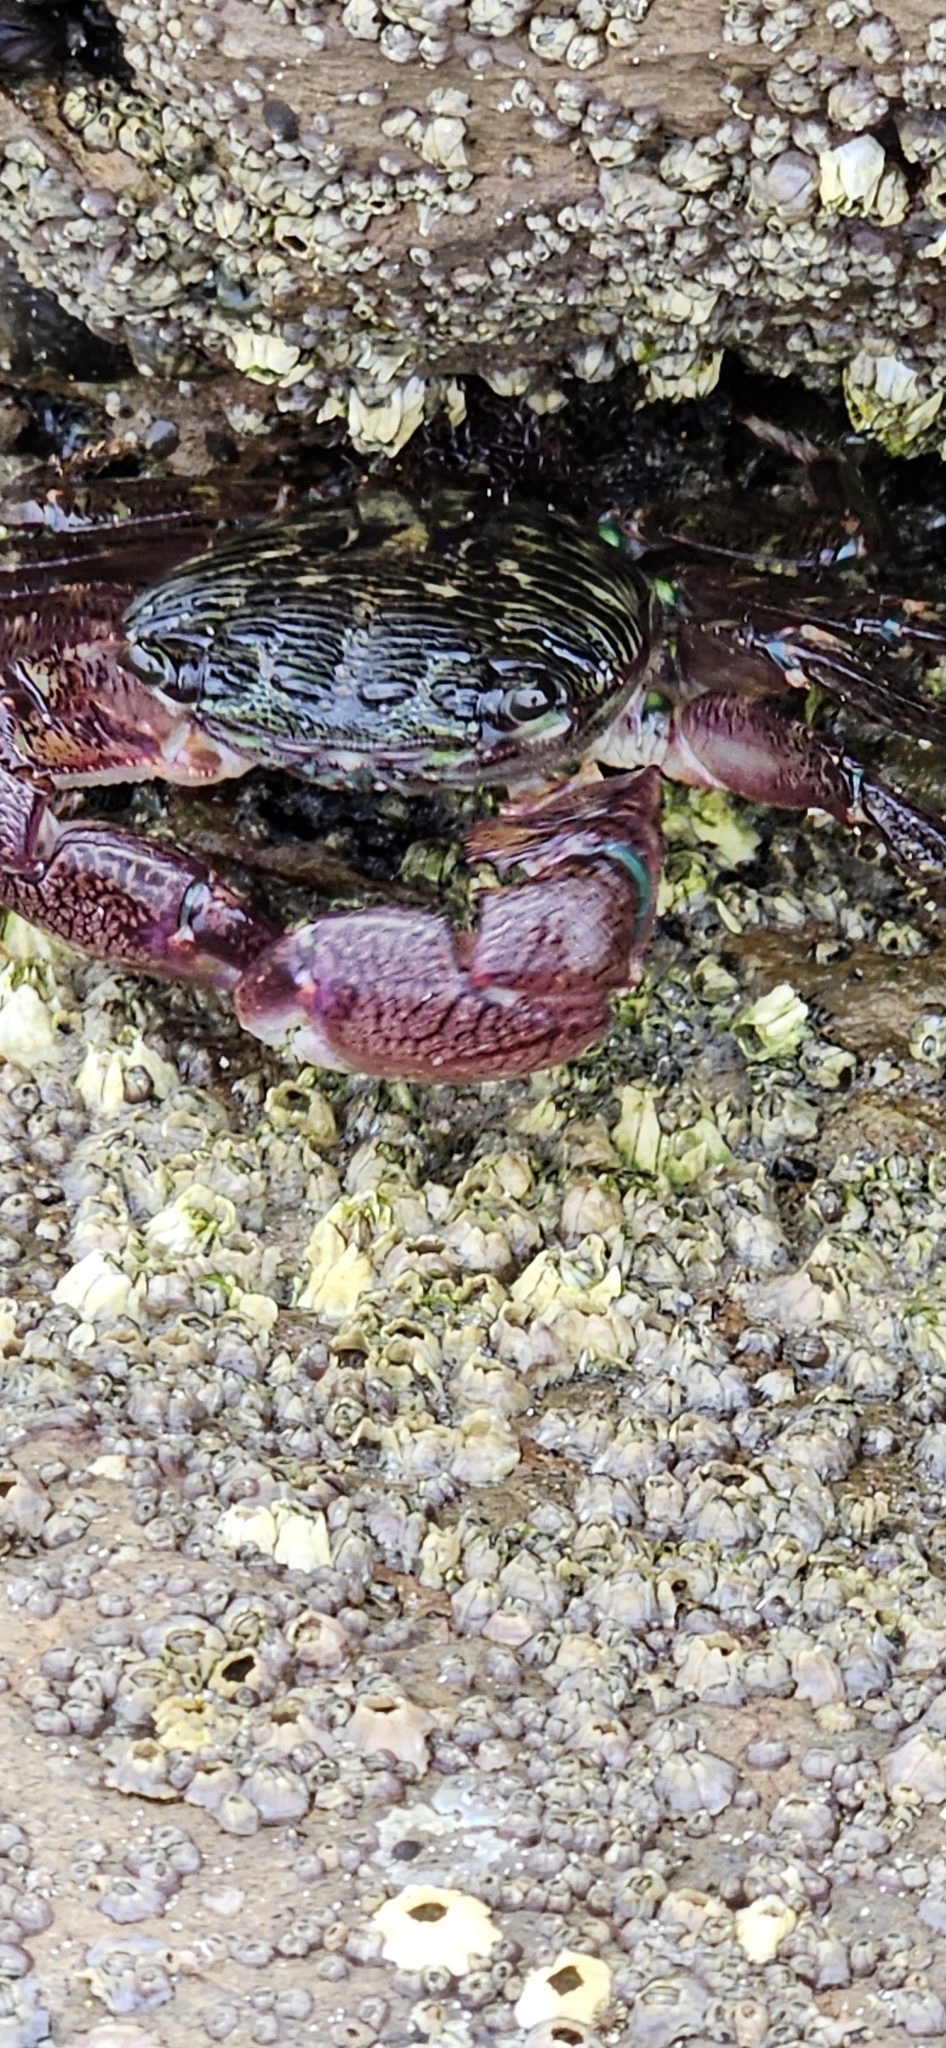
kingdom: Animalia
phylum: Arthropoda
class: Malacostraca
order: Decapoda
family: Grapsidae
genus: Pachygrapsus
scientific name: Pachygrapsus crassipes
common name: Striped shore crab
